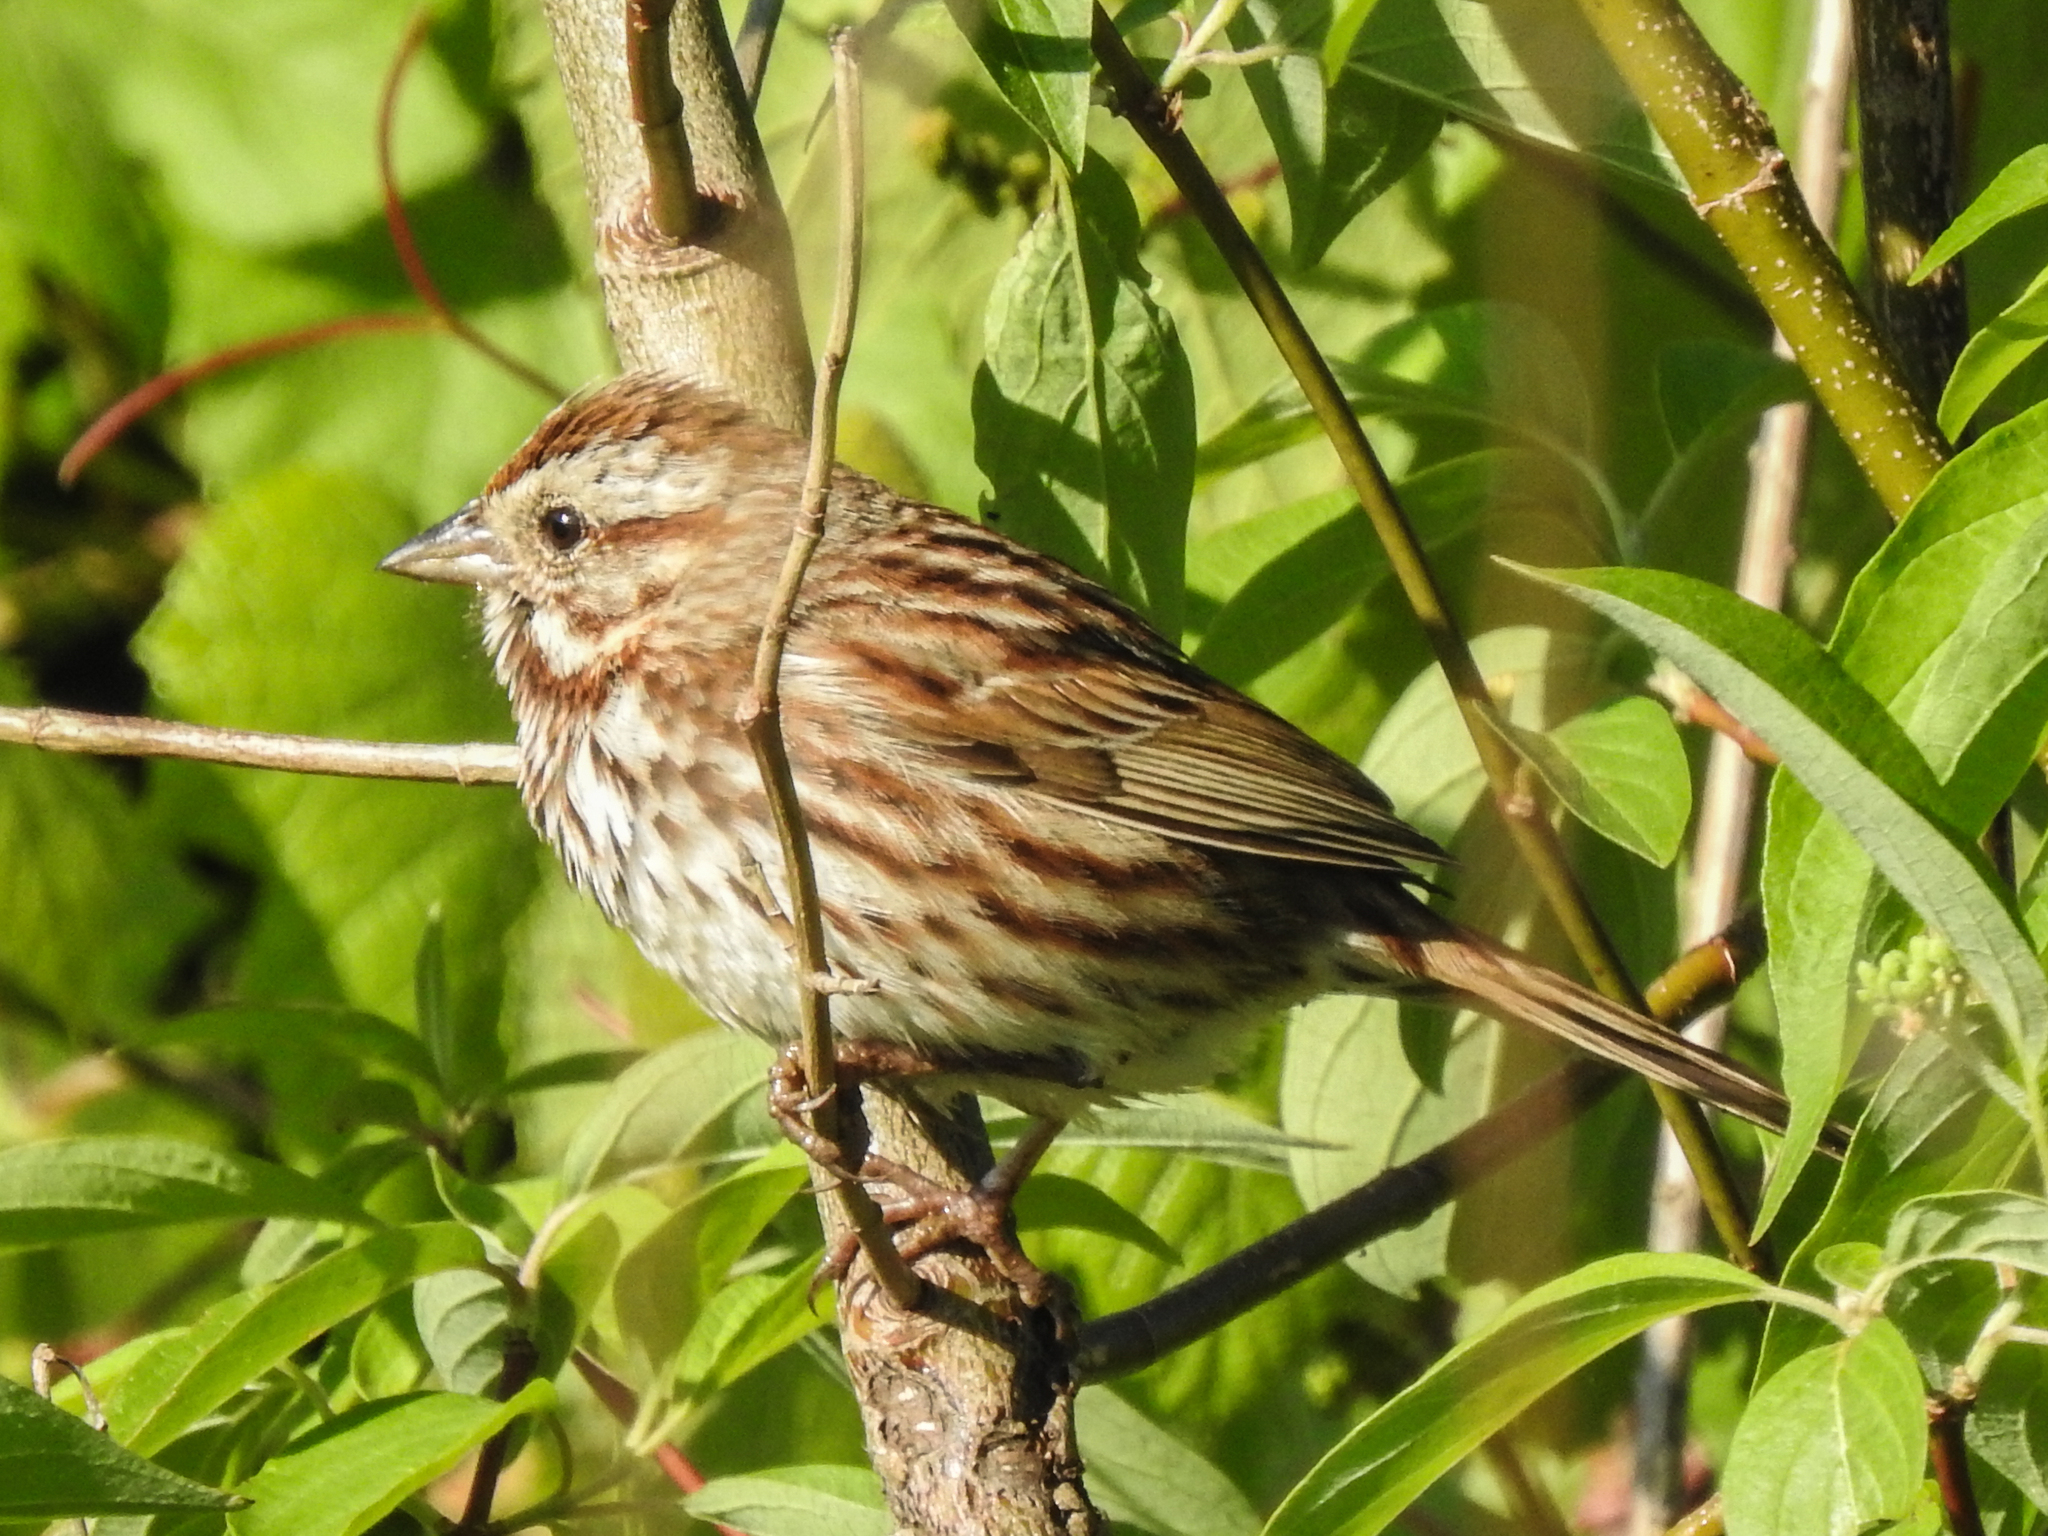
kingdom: Animalia
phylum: Chordata
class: Aves
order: Passeriformes
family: Passerellidae
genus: Melospiza
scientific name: Melospiza melodia
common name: Song sparrow
